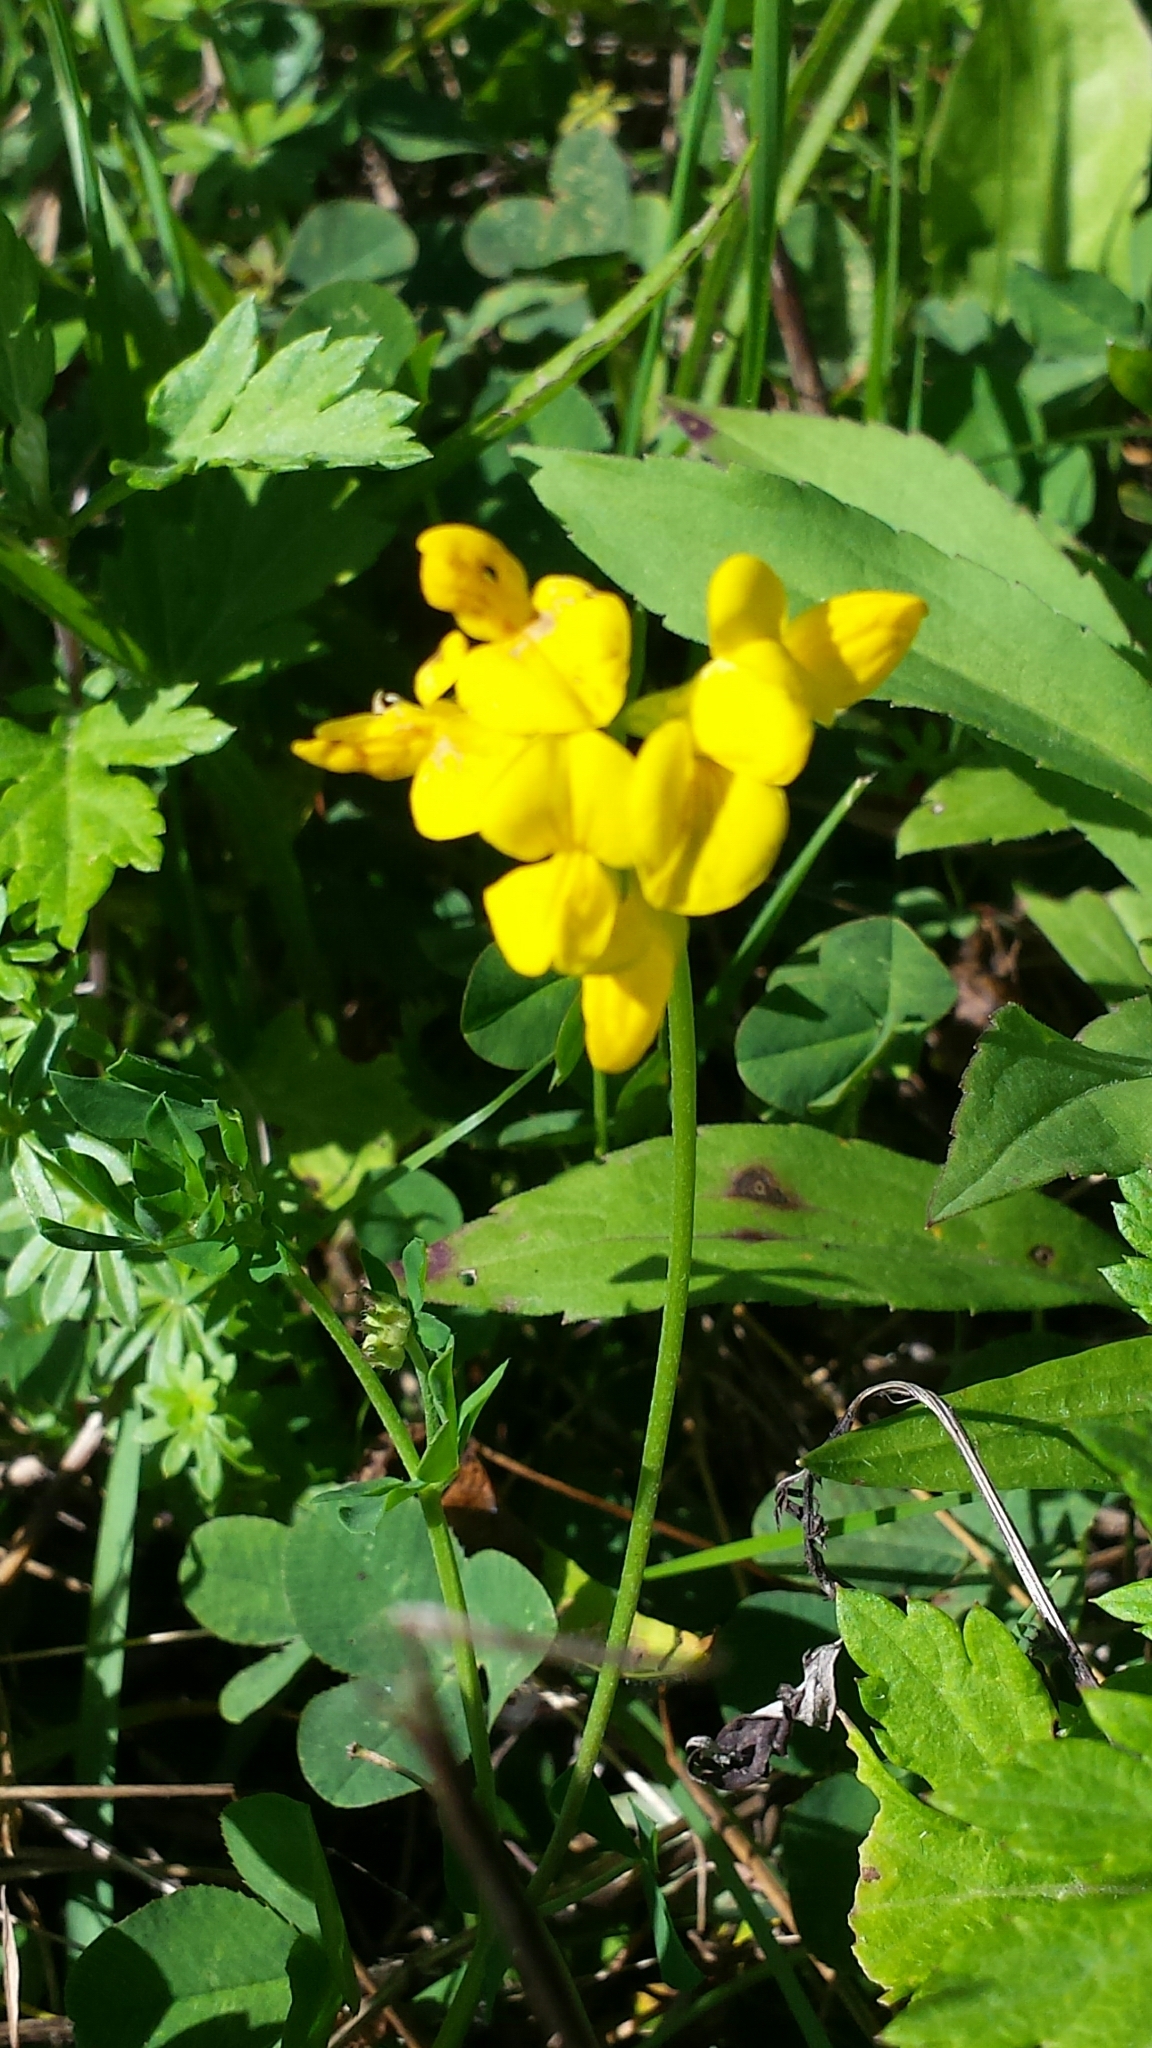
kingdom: Plantae
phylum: Tracheophyta
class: Magnoliopsida
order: Fabales
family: Fabaceae
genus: Lotus
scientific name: Lotus corniculatus
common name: Common bird's-foot-trefoil
